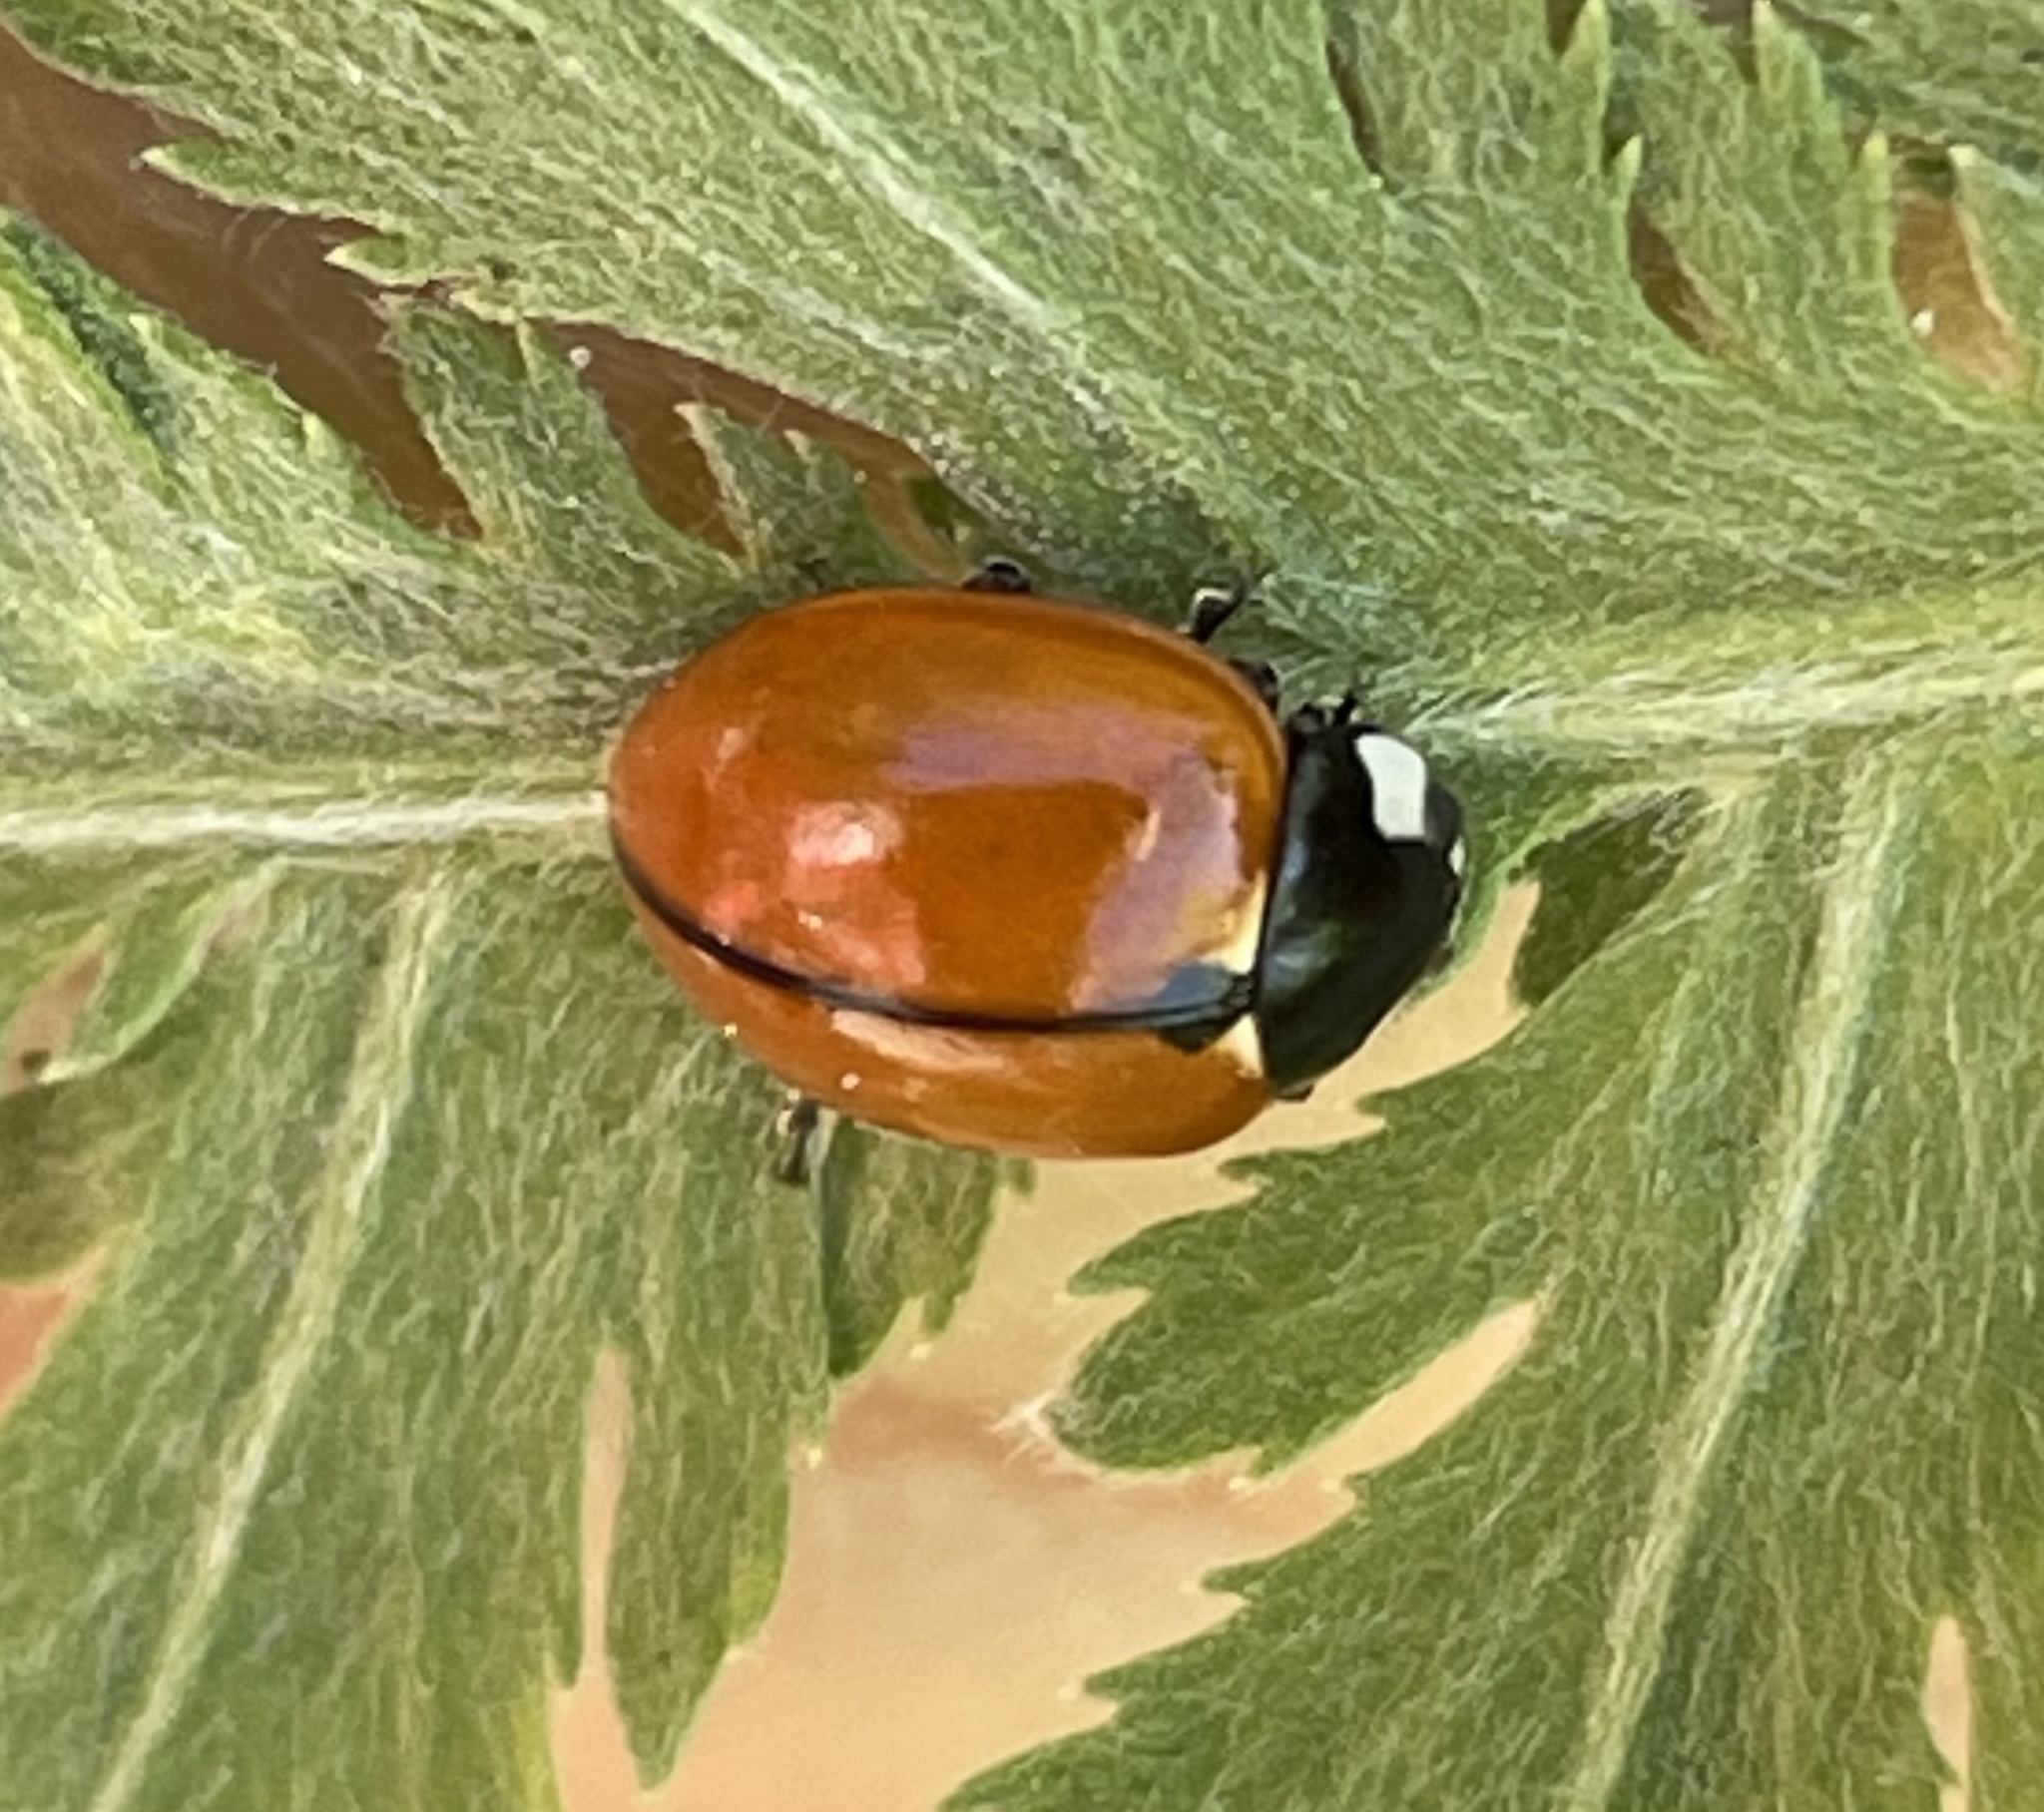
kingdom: Animalia
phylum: Arthropoda
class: Insecta
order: Coleoptera
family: Coccinellidae
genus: Coccinella
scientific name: Coccinella californica
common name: Lady beetle
